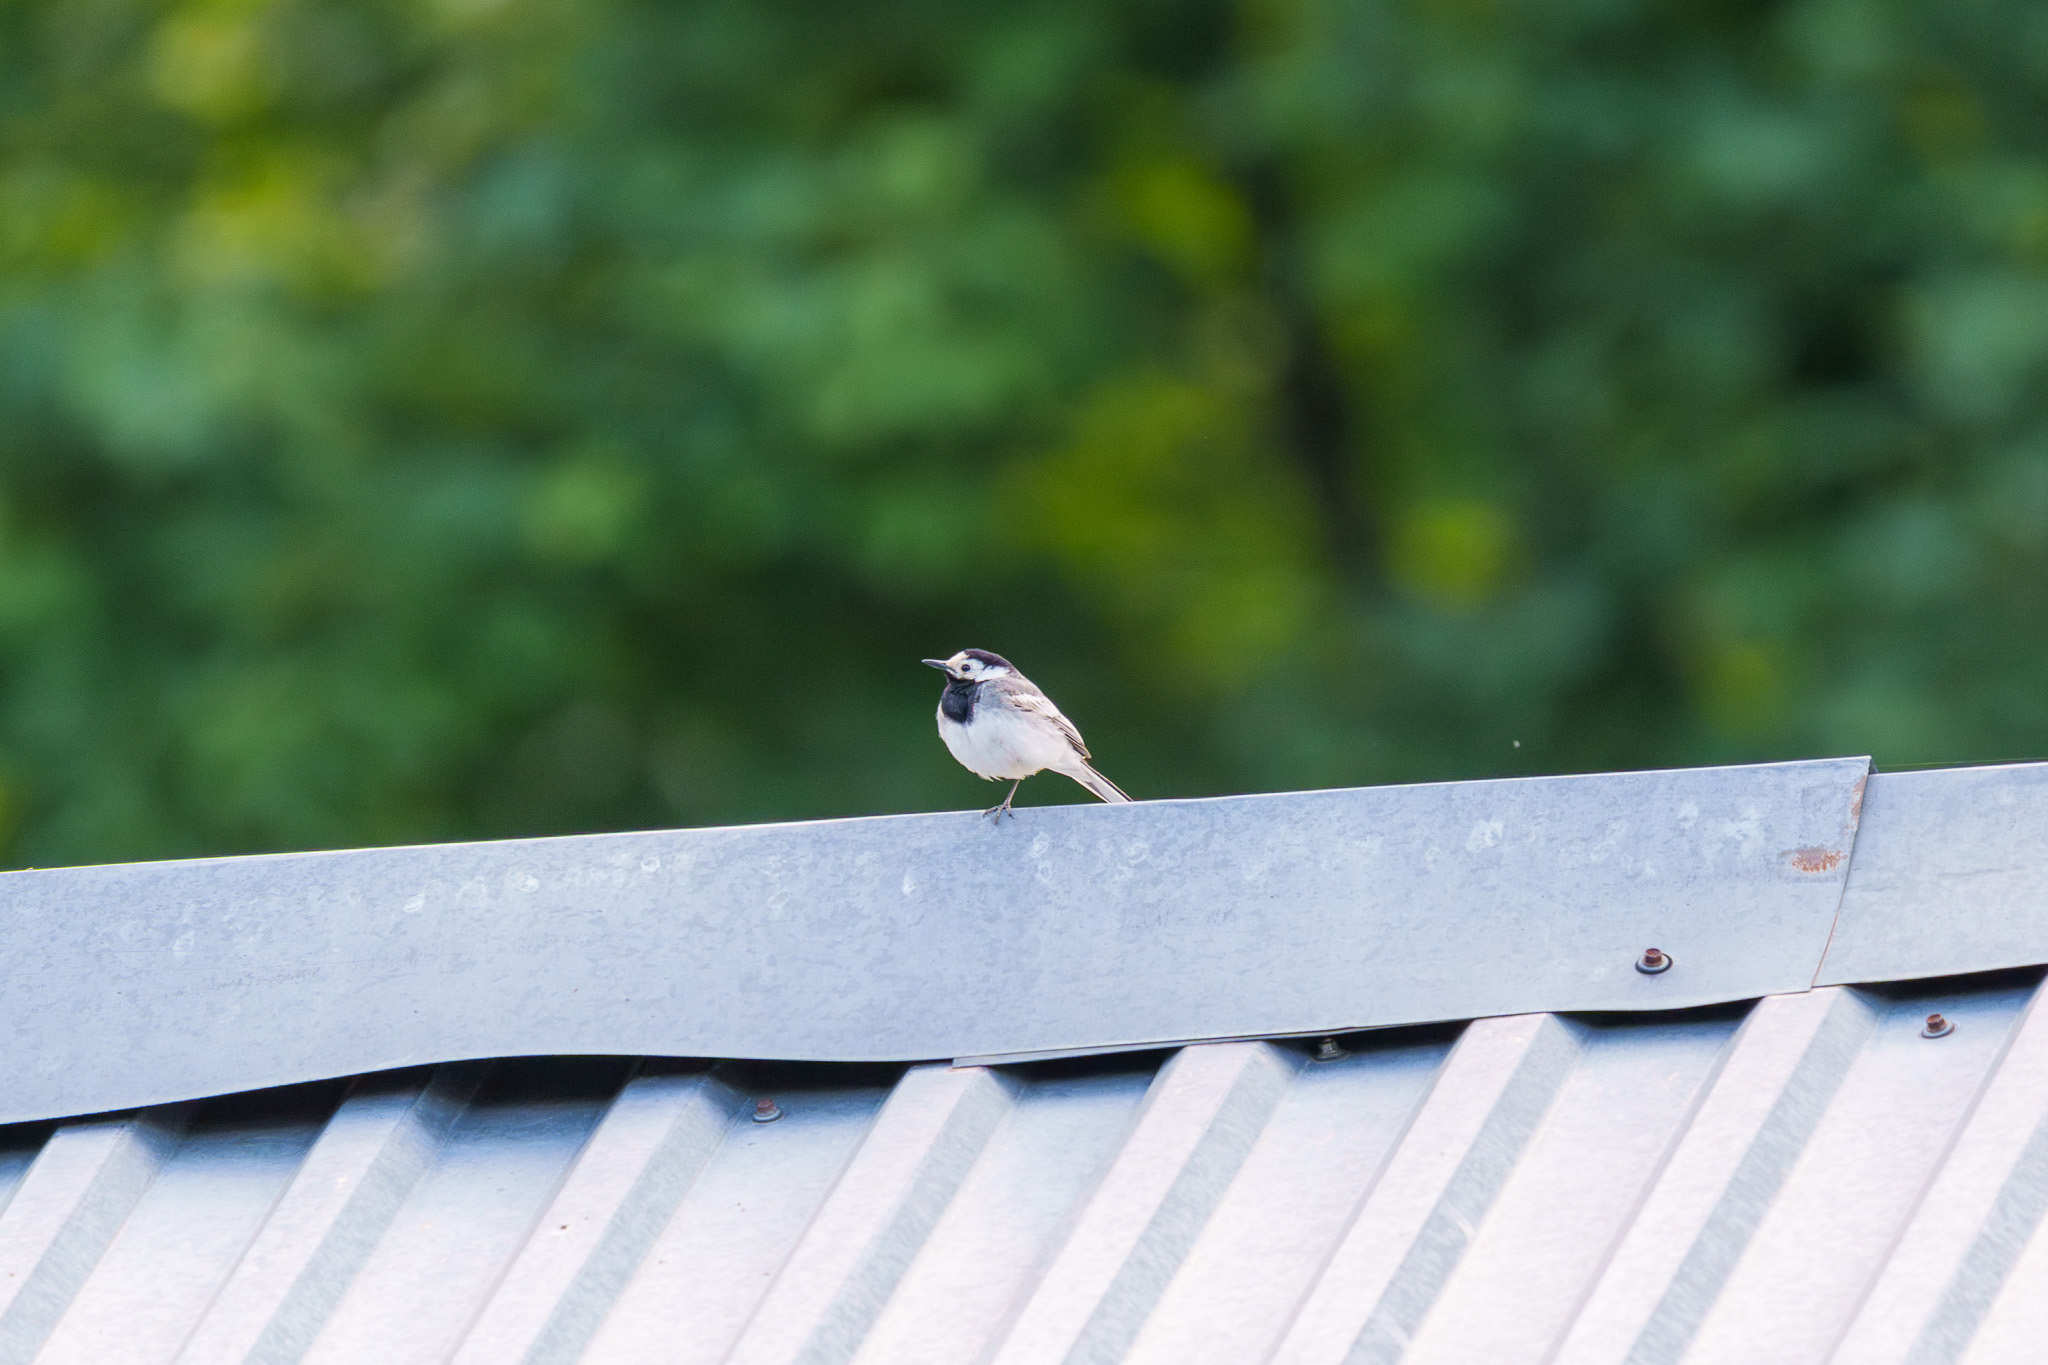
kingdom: Animalia
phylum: Chordata
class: Aves
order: Passeriformes
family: Motacillidae
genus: Motacilla
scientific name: Motacilla alba
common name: White wagtail
